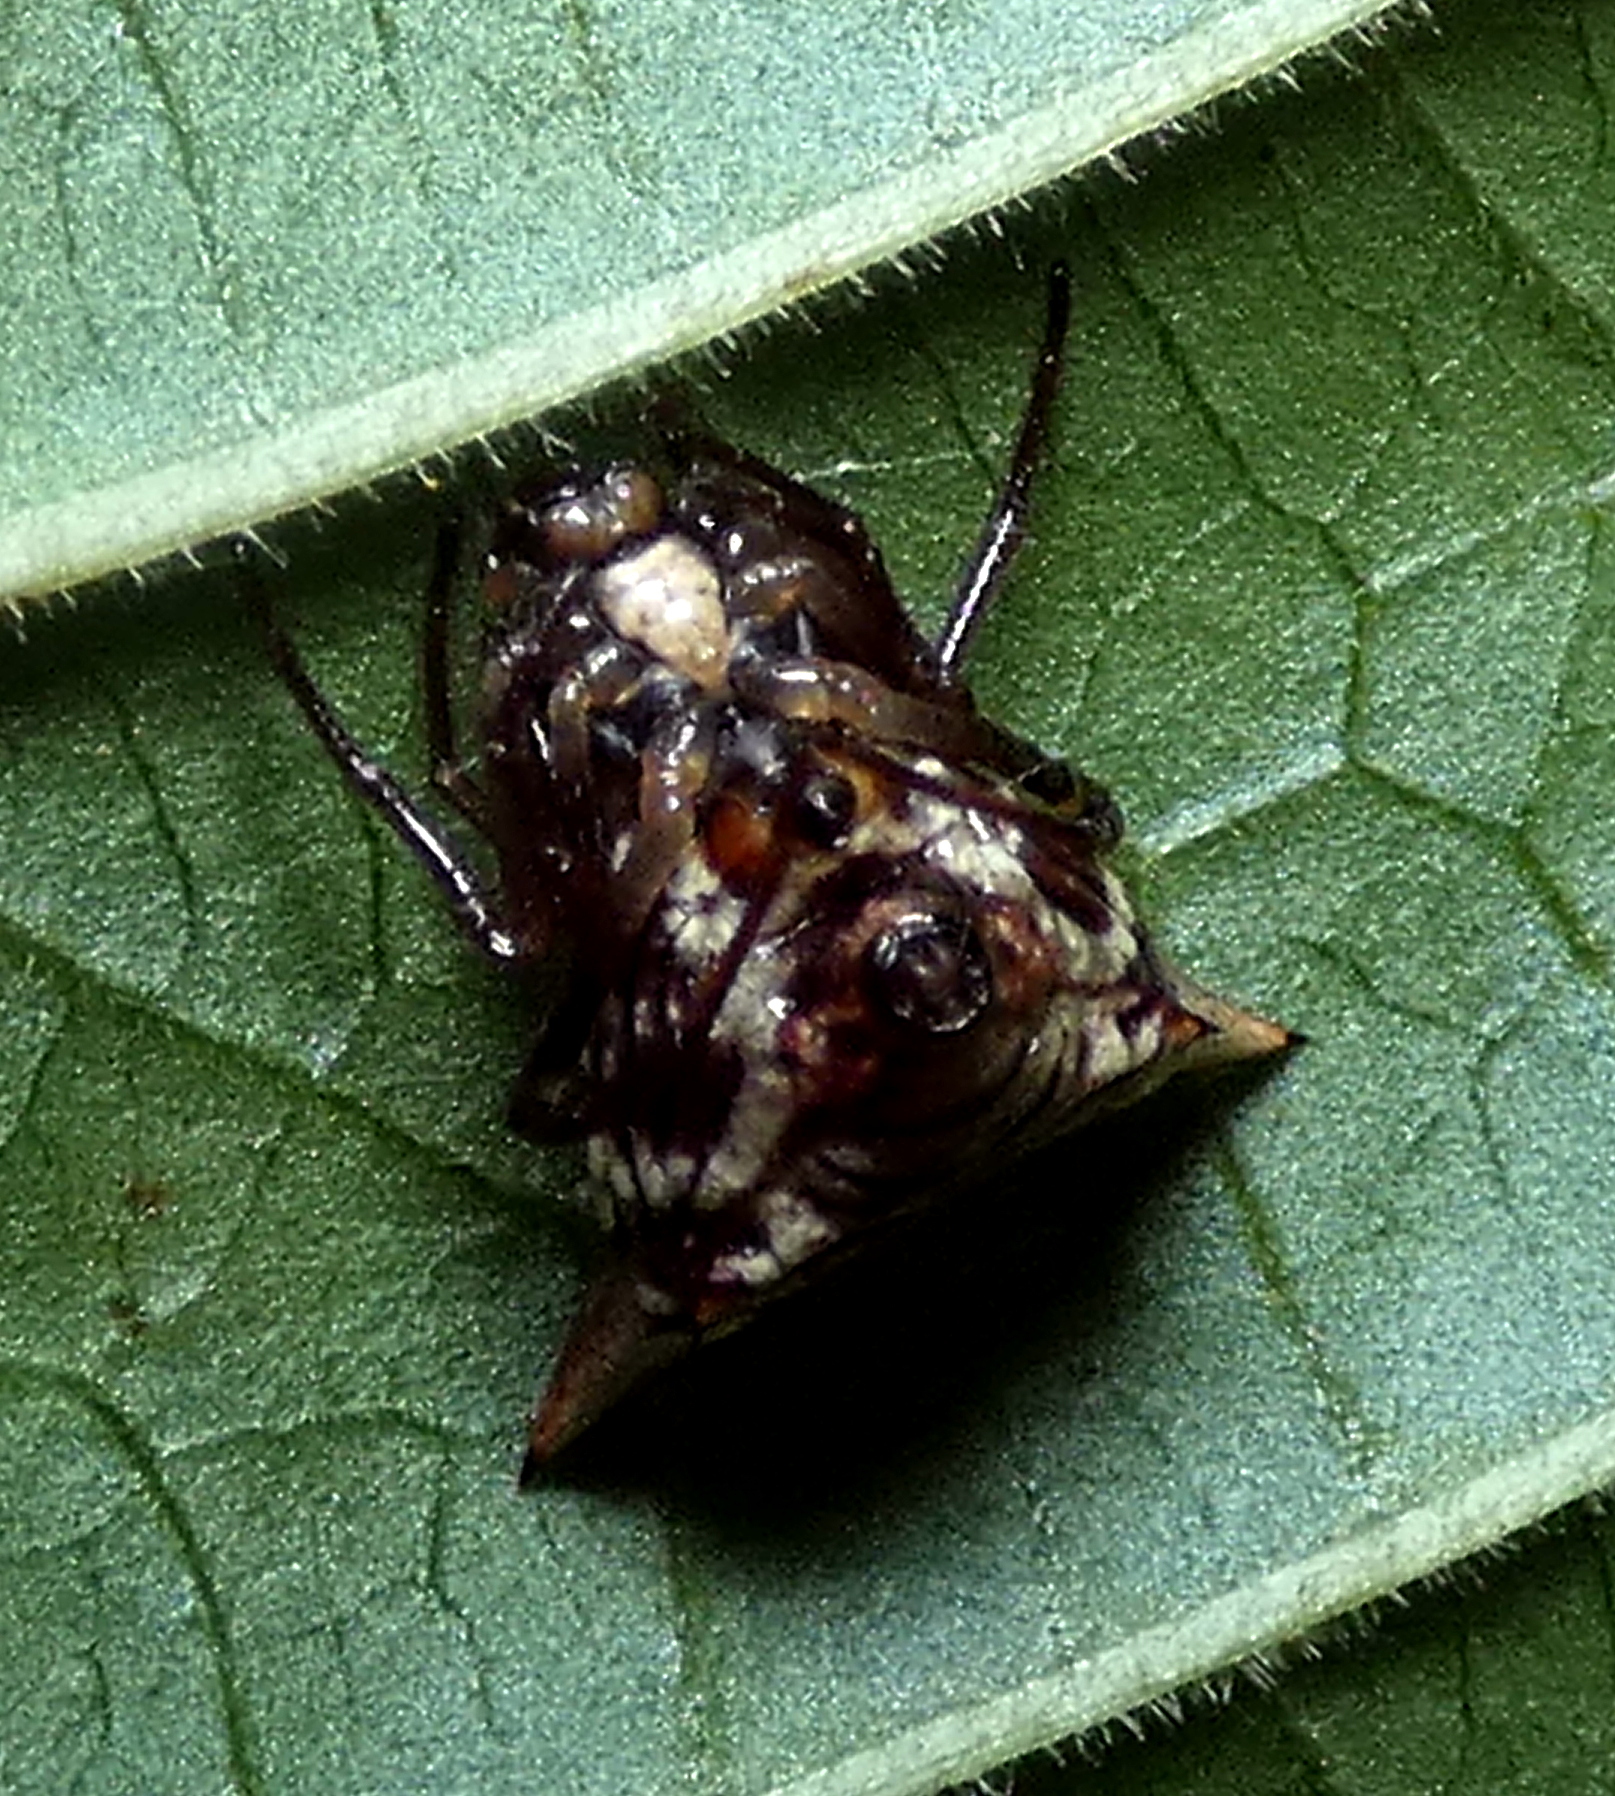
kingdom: Animalia
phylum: Arthropoda
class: Arachnida
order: Araneae
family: Araneidae
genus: Micrathena
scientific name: Micrathena evansi
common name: Orb weavers
